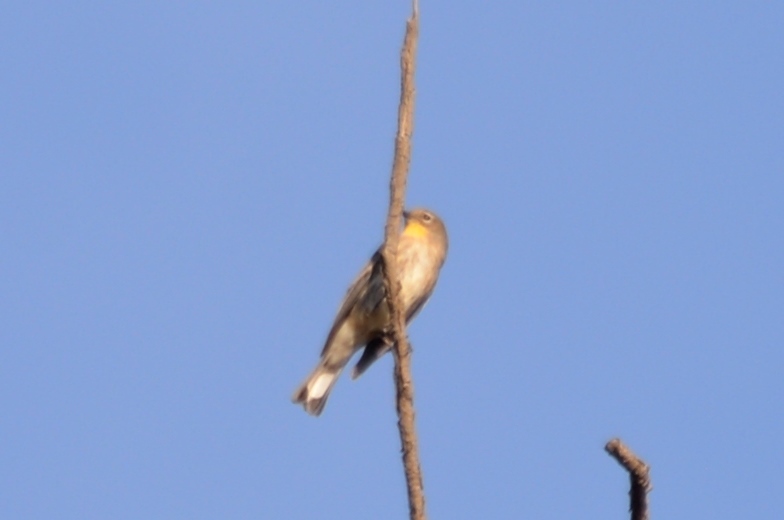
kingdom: Animalia
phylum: Chordata
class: Aves
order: Passeriformes
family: Parulidae
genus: Setophaga
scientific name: Setophaga auduboni
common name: Audubon's warbler
